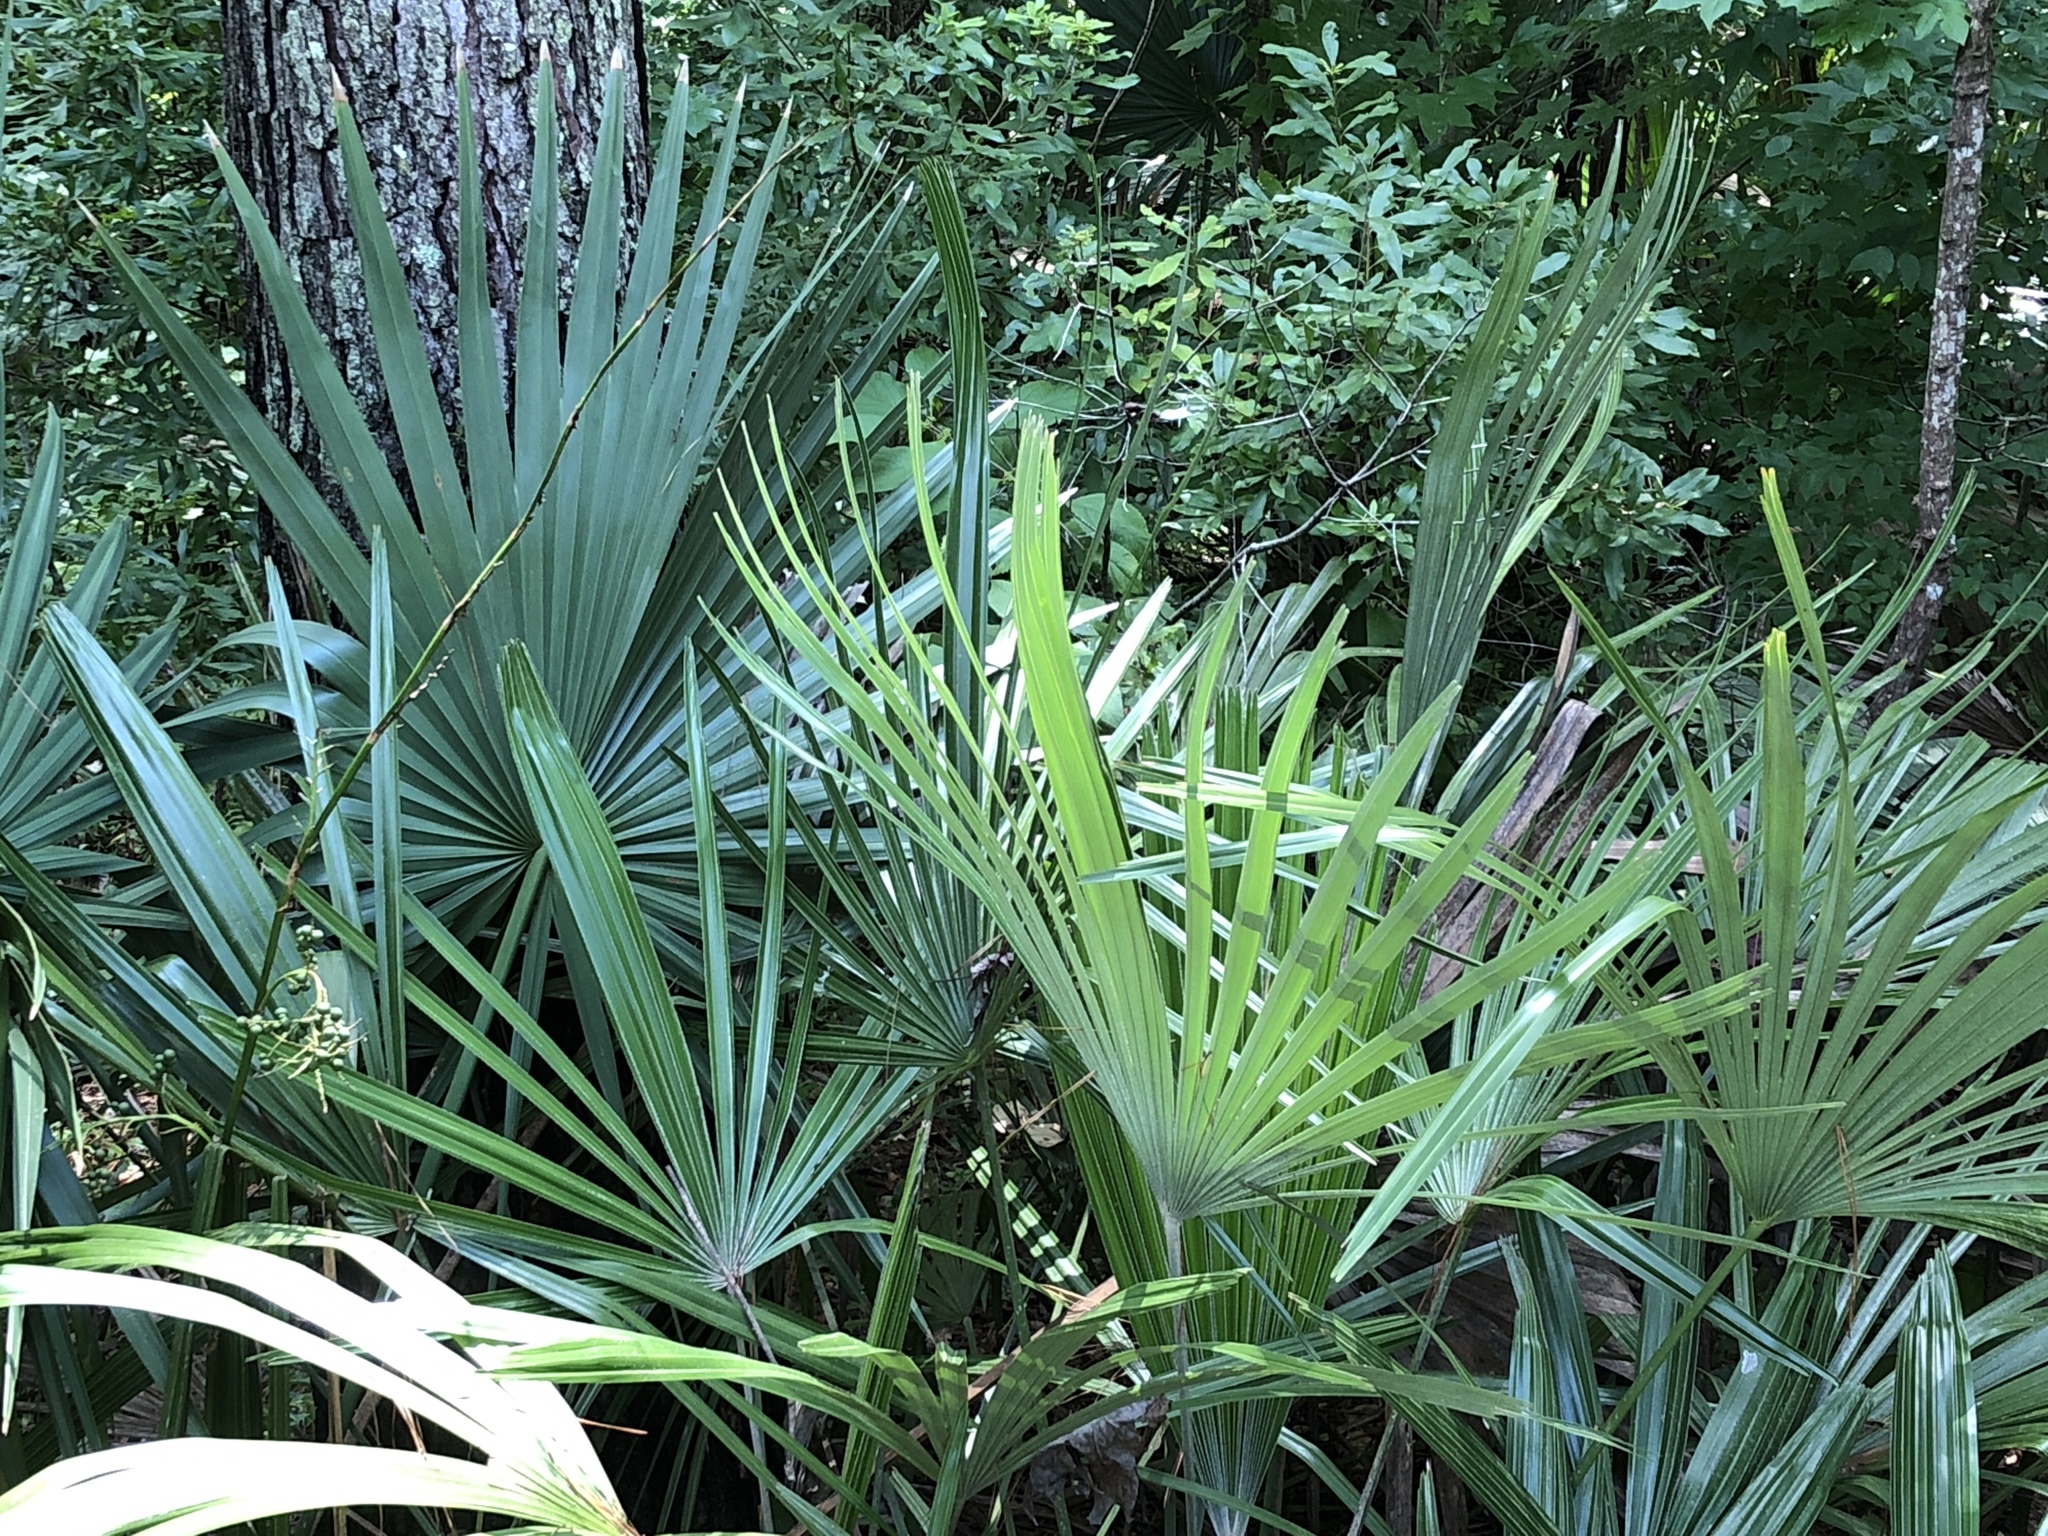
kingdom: Plantae
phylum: Tracheophyta
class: Liliopsida
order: Arecales
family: Arecaceae
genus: Sabal
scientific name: Sabal minor
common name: Dwarf palmetto
